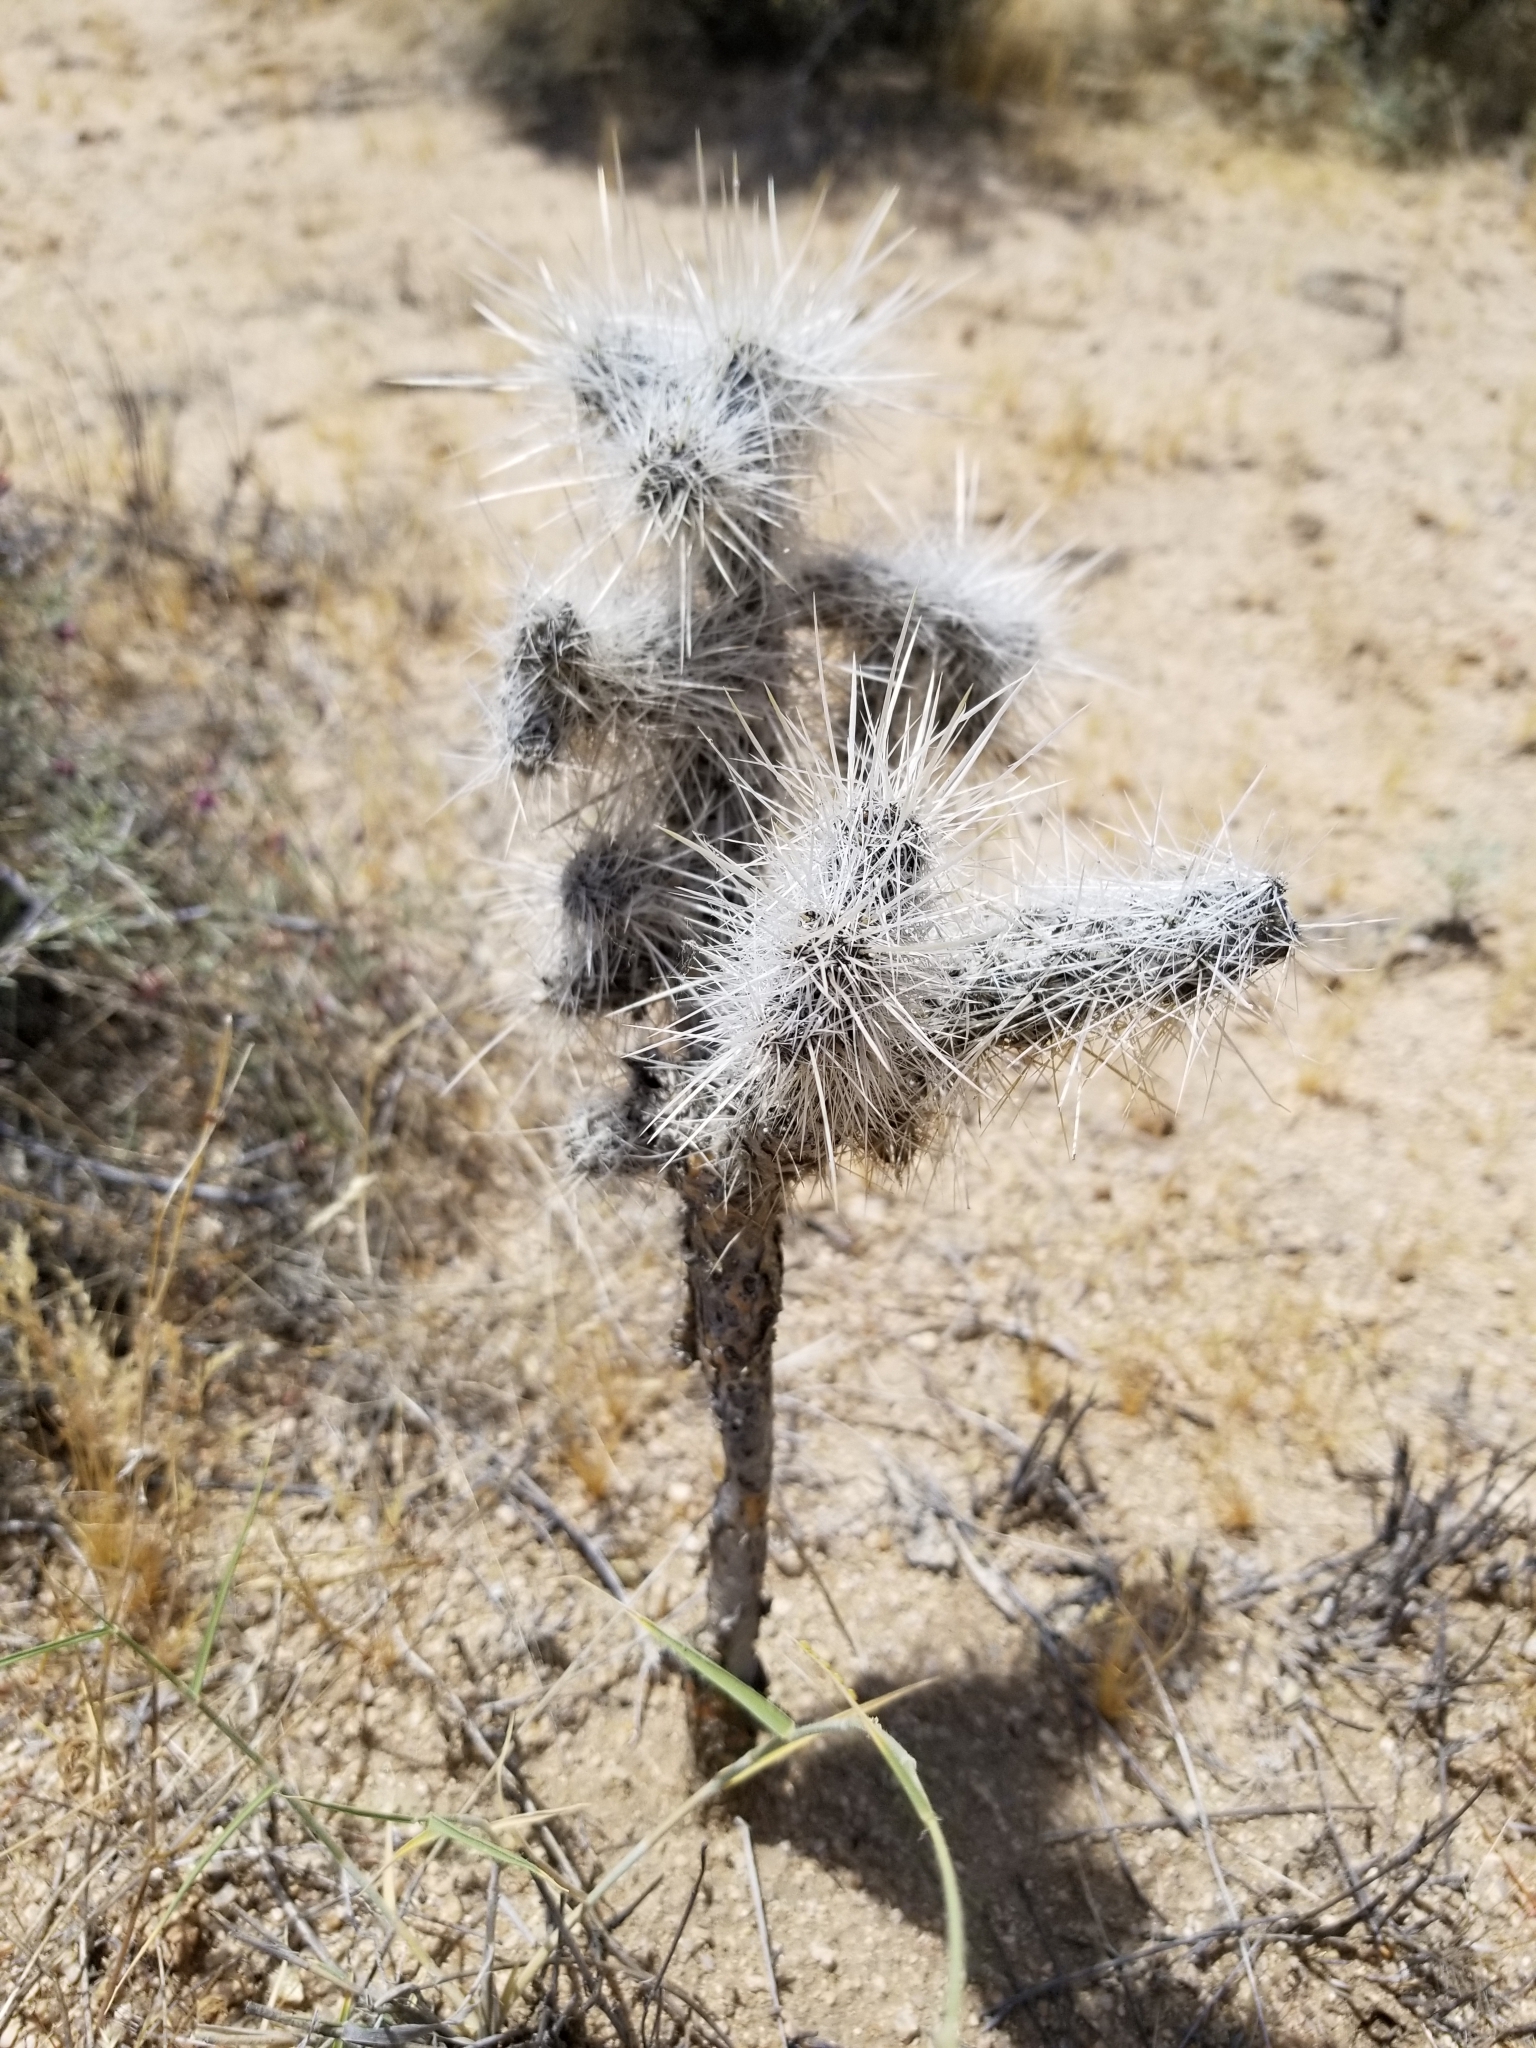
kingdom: Plantae
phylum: Tracheophyta
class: Magnoliopsida
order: Caryophyllales
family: Cactaceae
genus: Cylindropuntia
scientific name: Cylindropuntia echinocarpa
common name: Ground cholla
